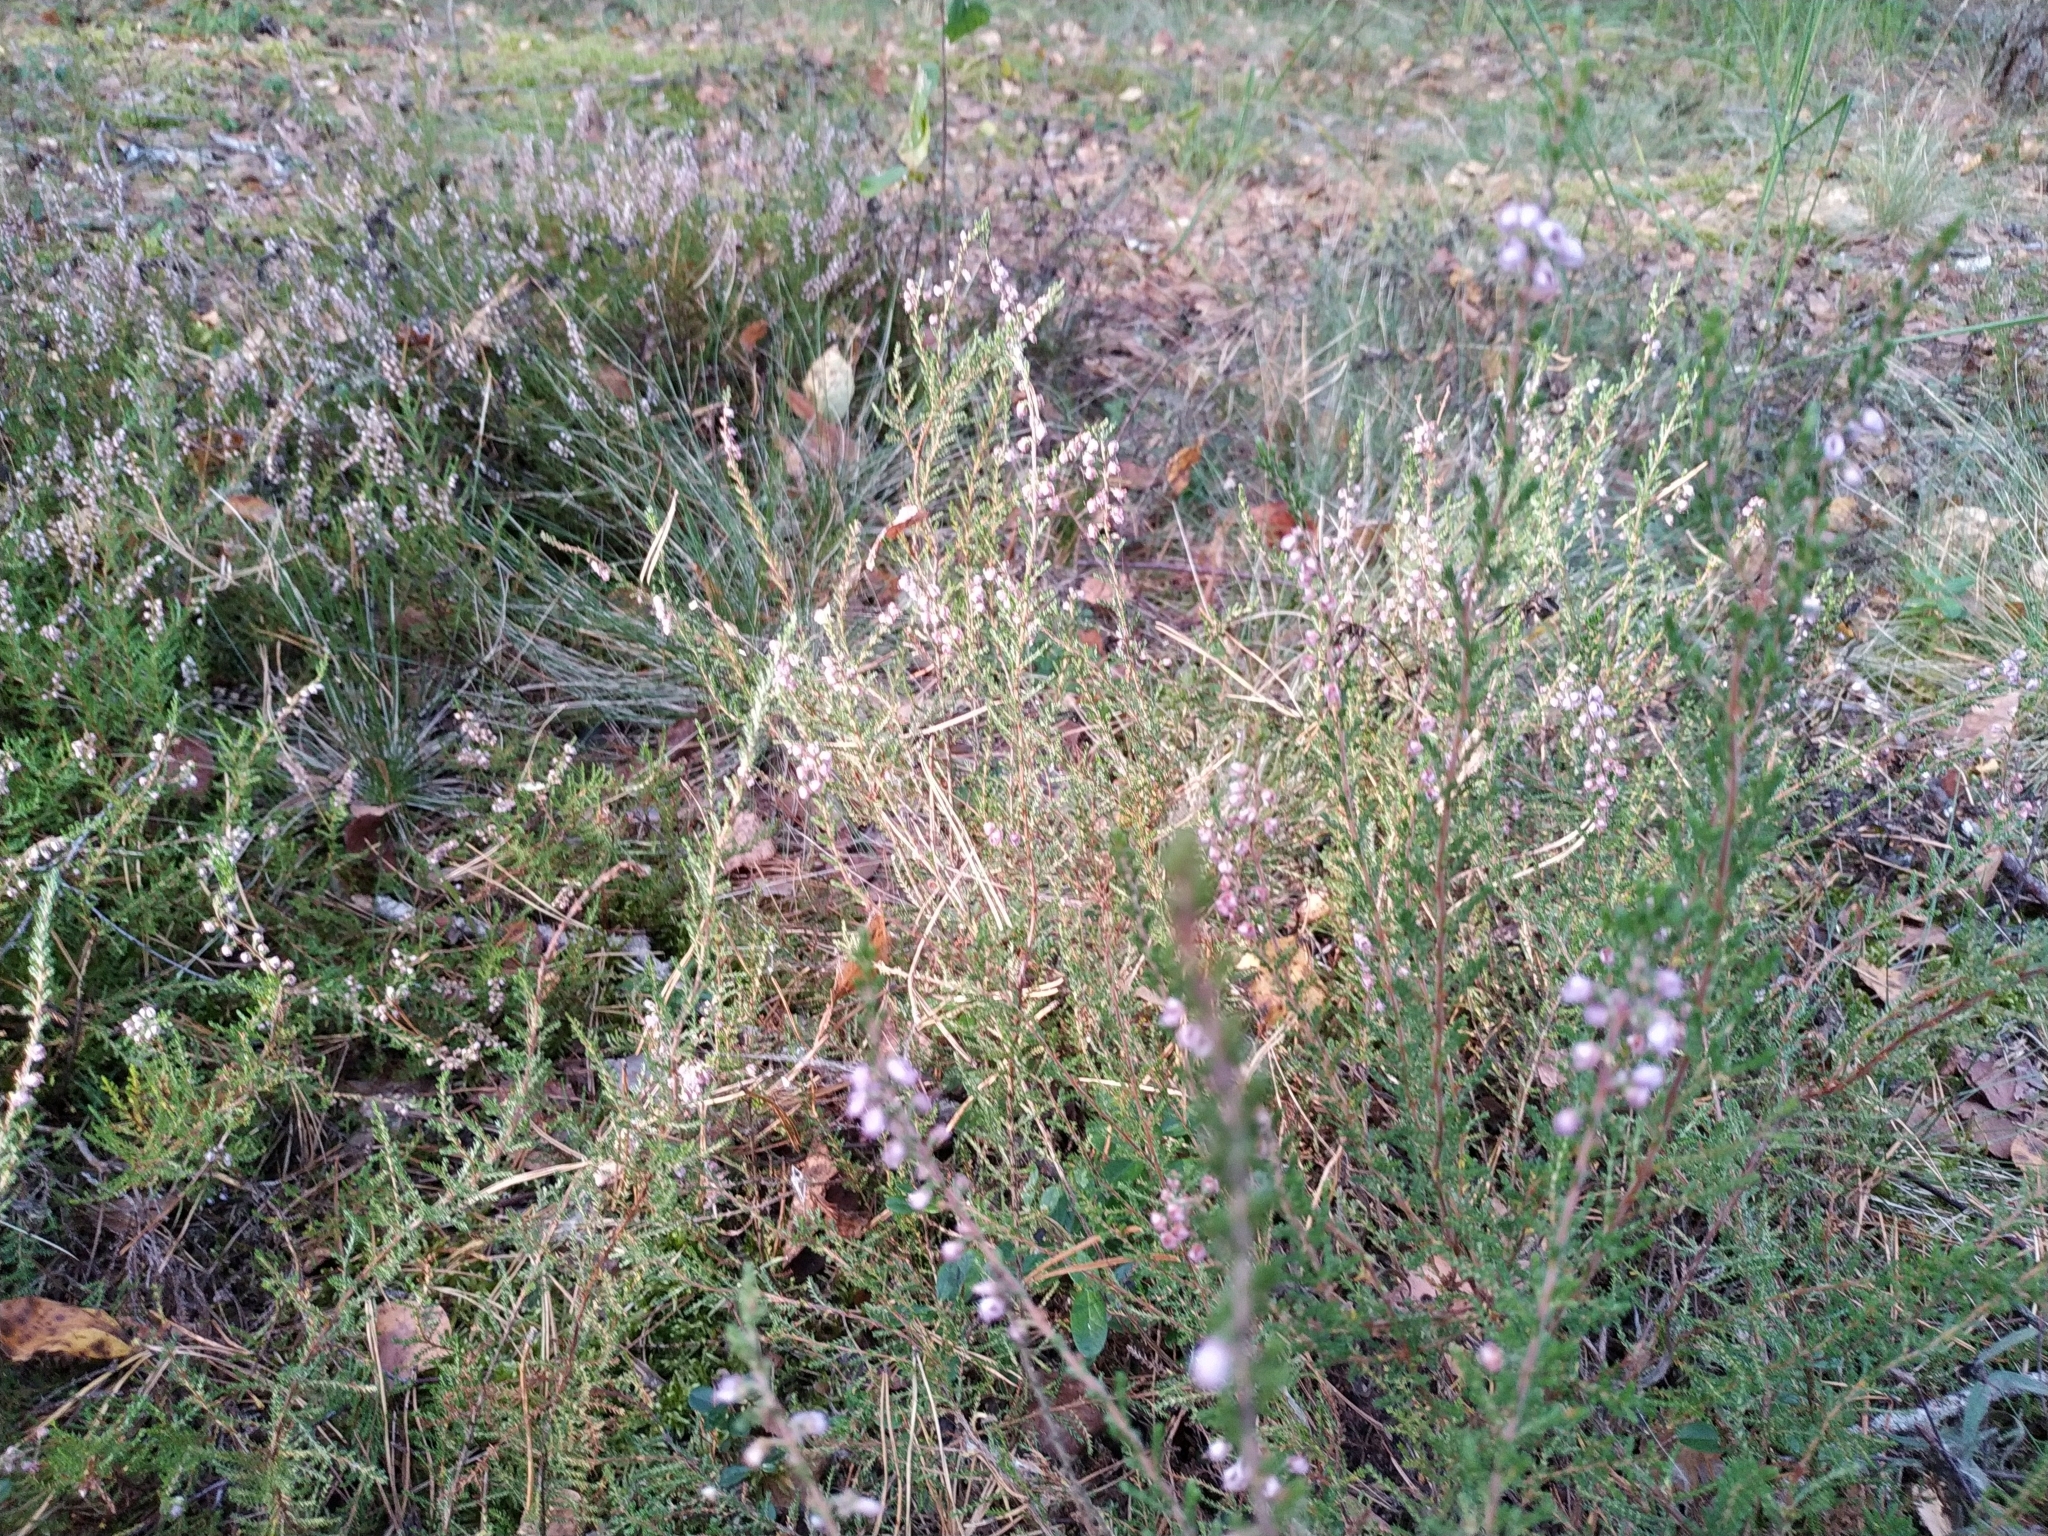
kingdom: Plantae
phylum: Tracheophyta
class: Magnoliopsida
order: Ericales
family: Ericaceae
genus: Calluna
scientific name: Calluna vulgaris
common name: Heather
